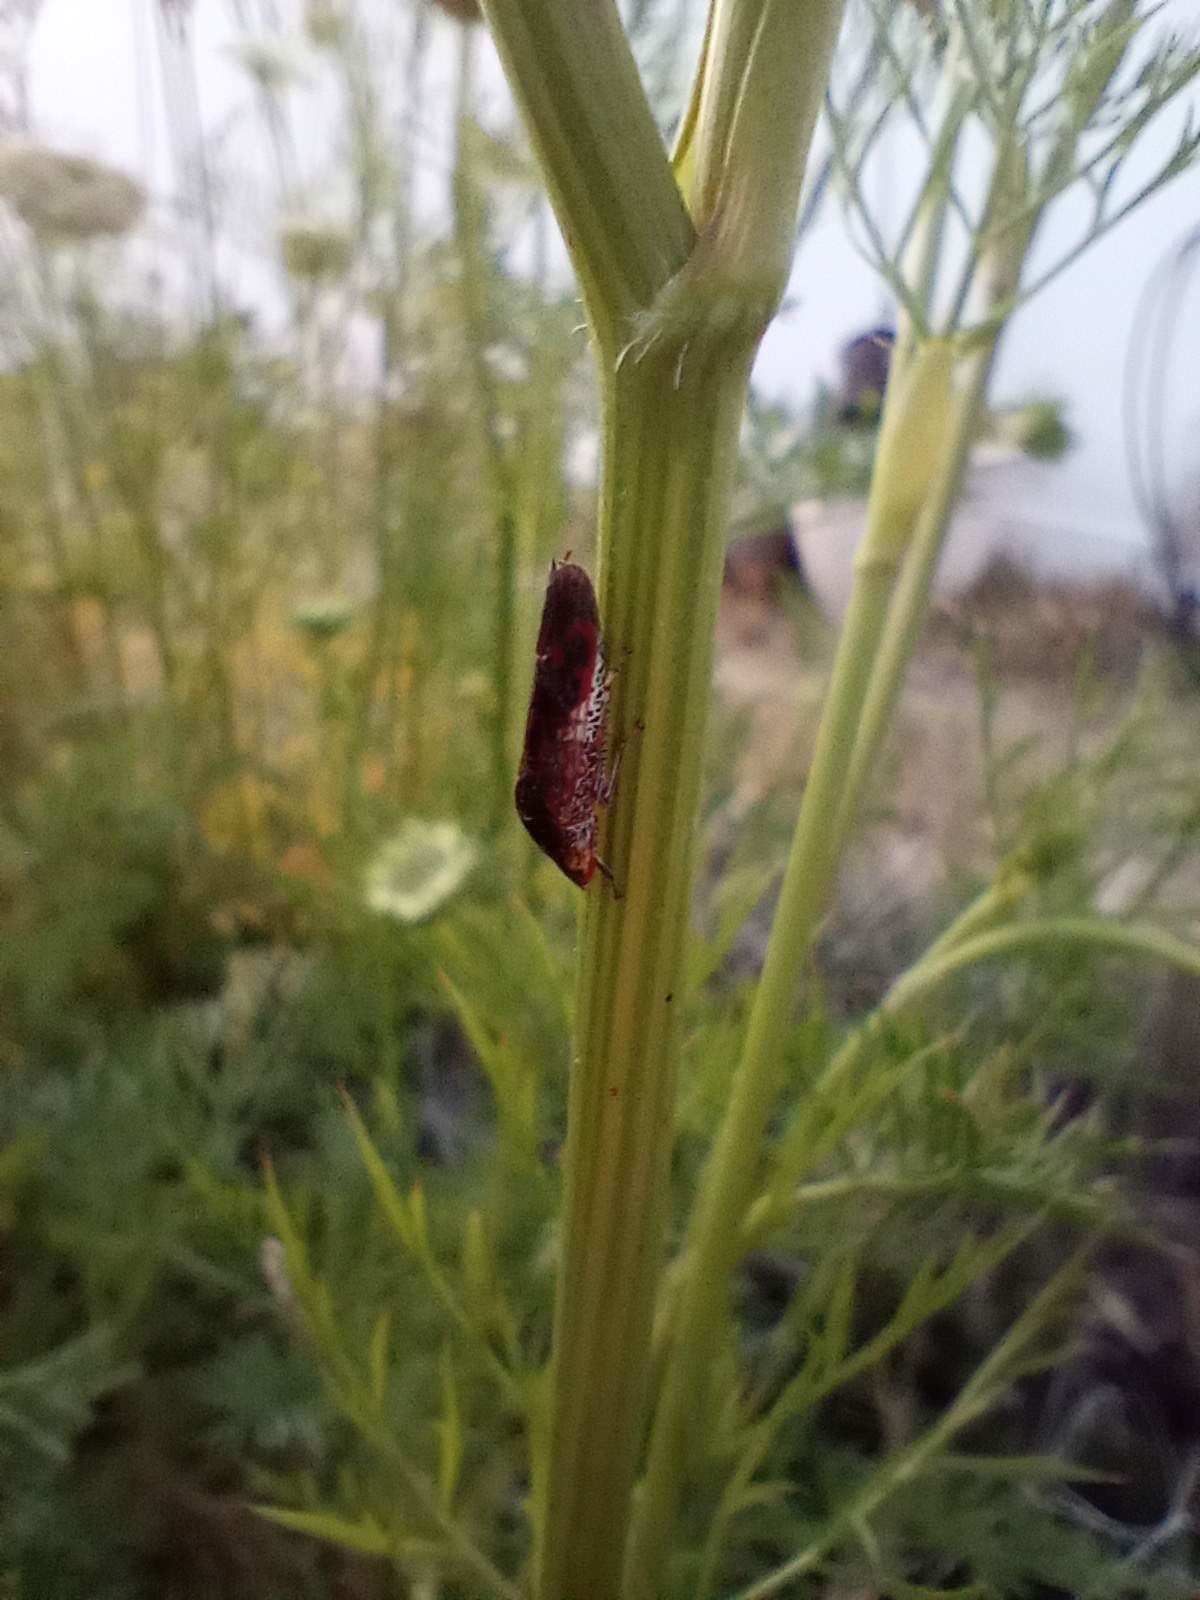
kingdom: Animalia
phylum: Arthropoda
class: Insecta
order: Hemiptera
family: Cicadellidae
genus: Homalodisca
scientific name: Homalodisca vitripennis
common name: Glassy-winged sharpshooter
